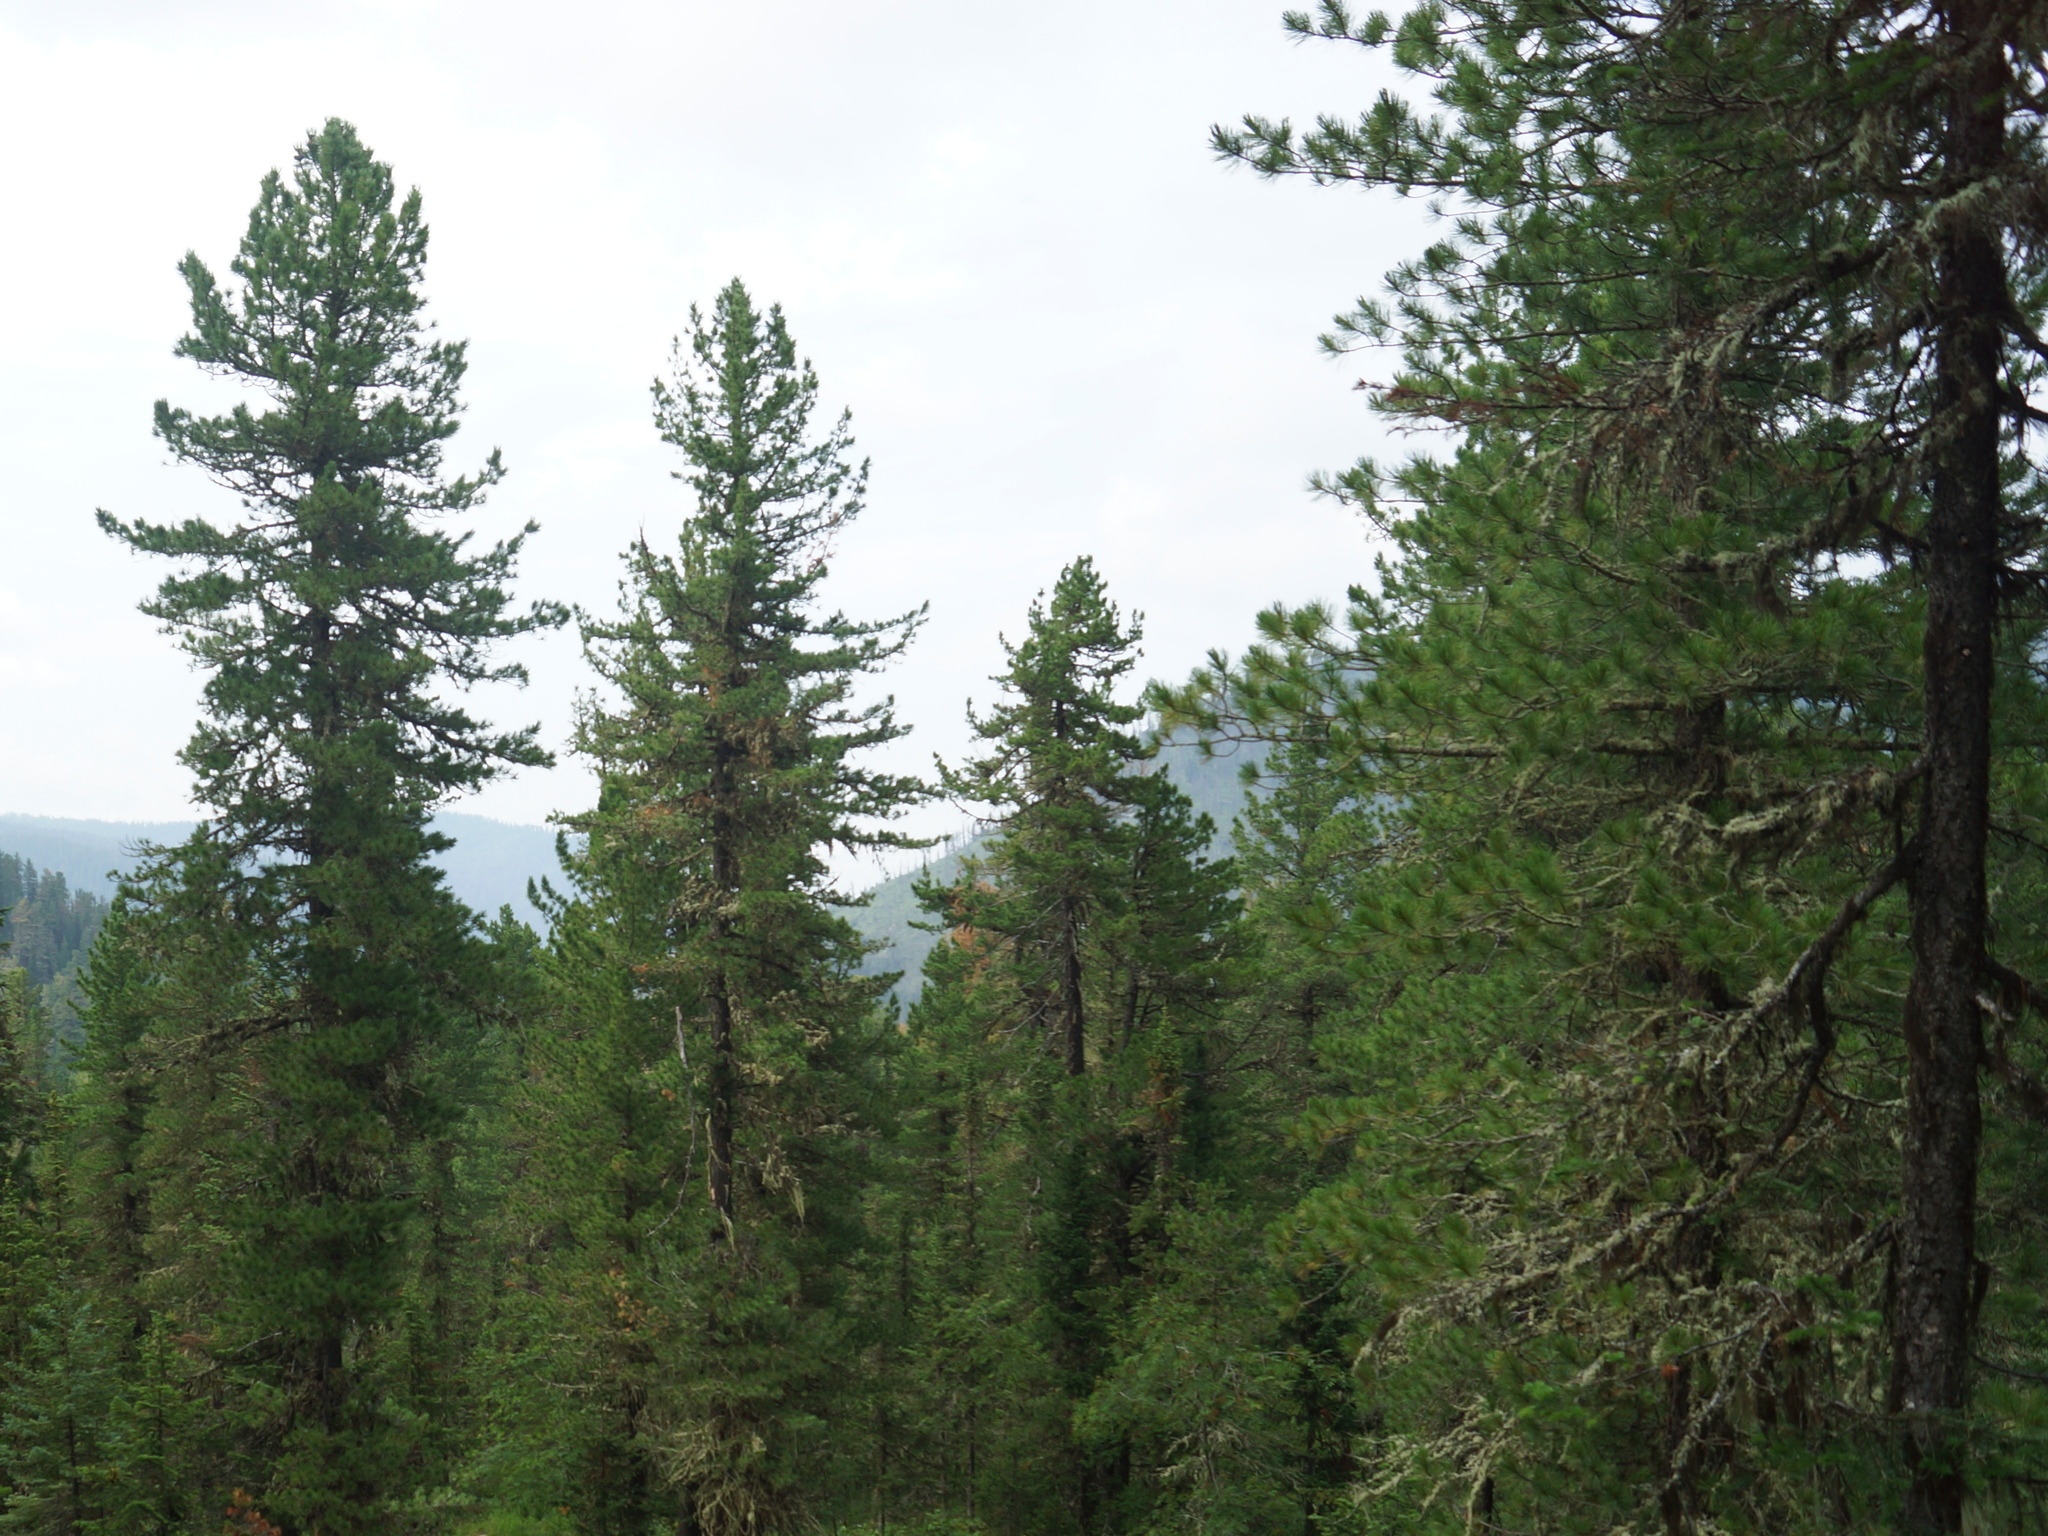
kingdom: Plantae
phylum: Tracheophyta
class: Pinopsida
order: Pinales
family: Pinaceae
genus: Pinus
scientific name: Pinus sibirica
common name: Siberian pine
